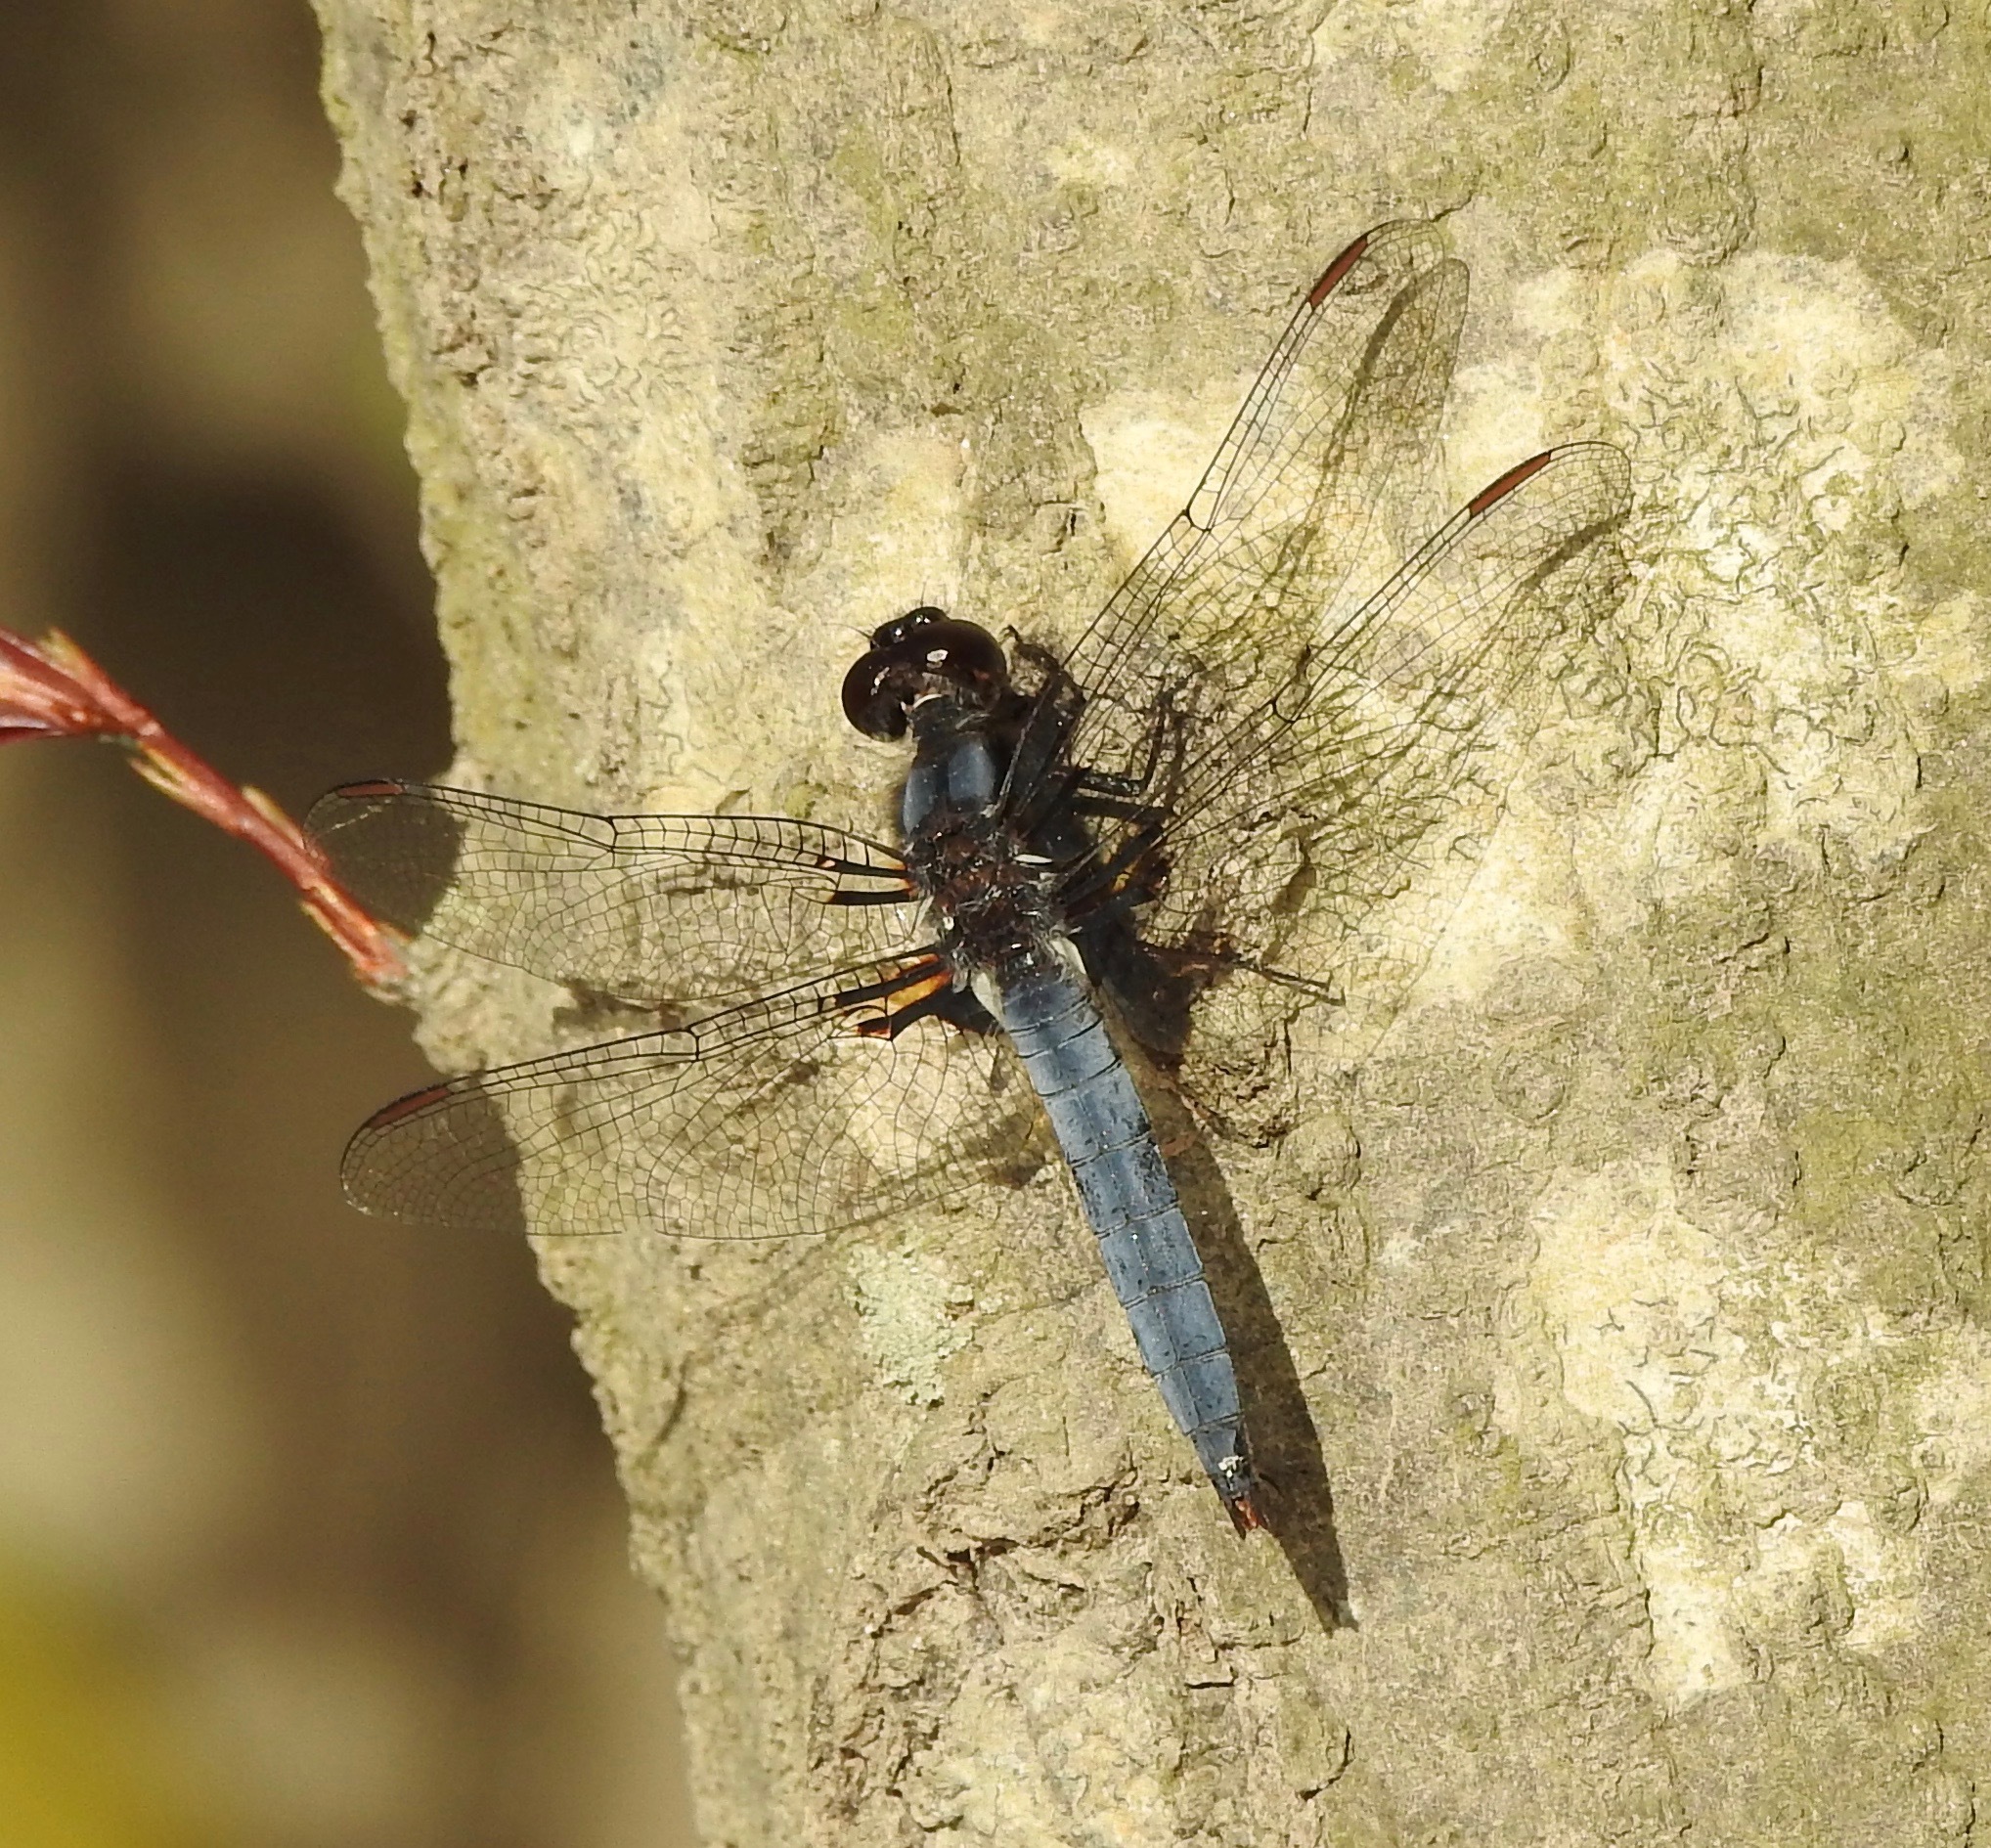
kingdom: Animalia
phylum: Arthropoda
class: Insecta
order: Odonata
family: Libellulidae
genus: Ladona
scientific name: Ladona deplanata
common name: Blue corporal
